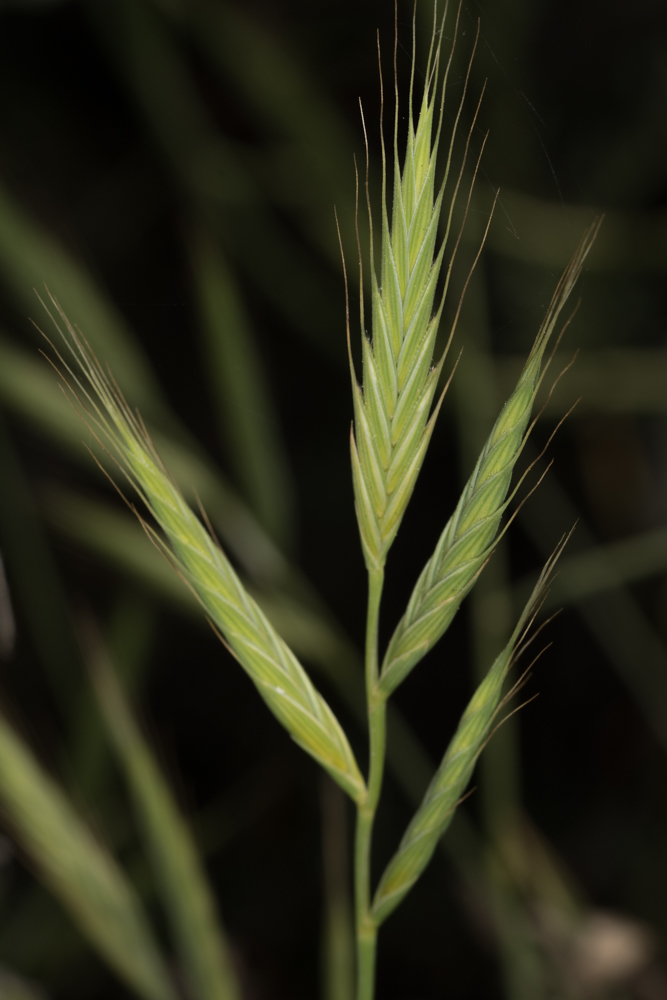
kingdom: Plantae
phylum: Tracheophyta
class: Liliopsida
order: Poales
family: Poaceae
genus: Brachypodium
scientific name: Brachypodium distachyon
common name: Stiff brome
